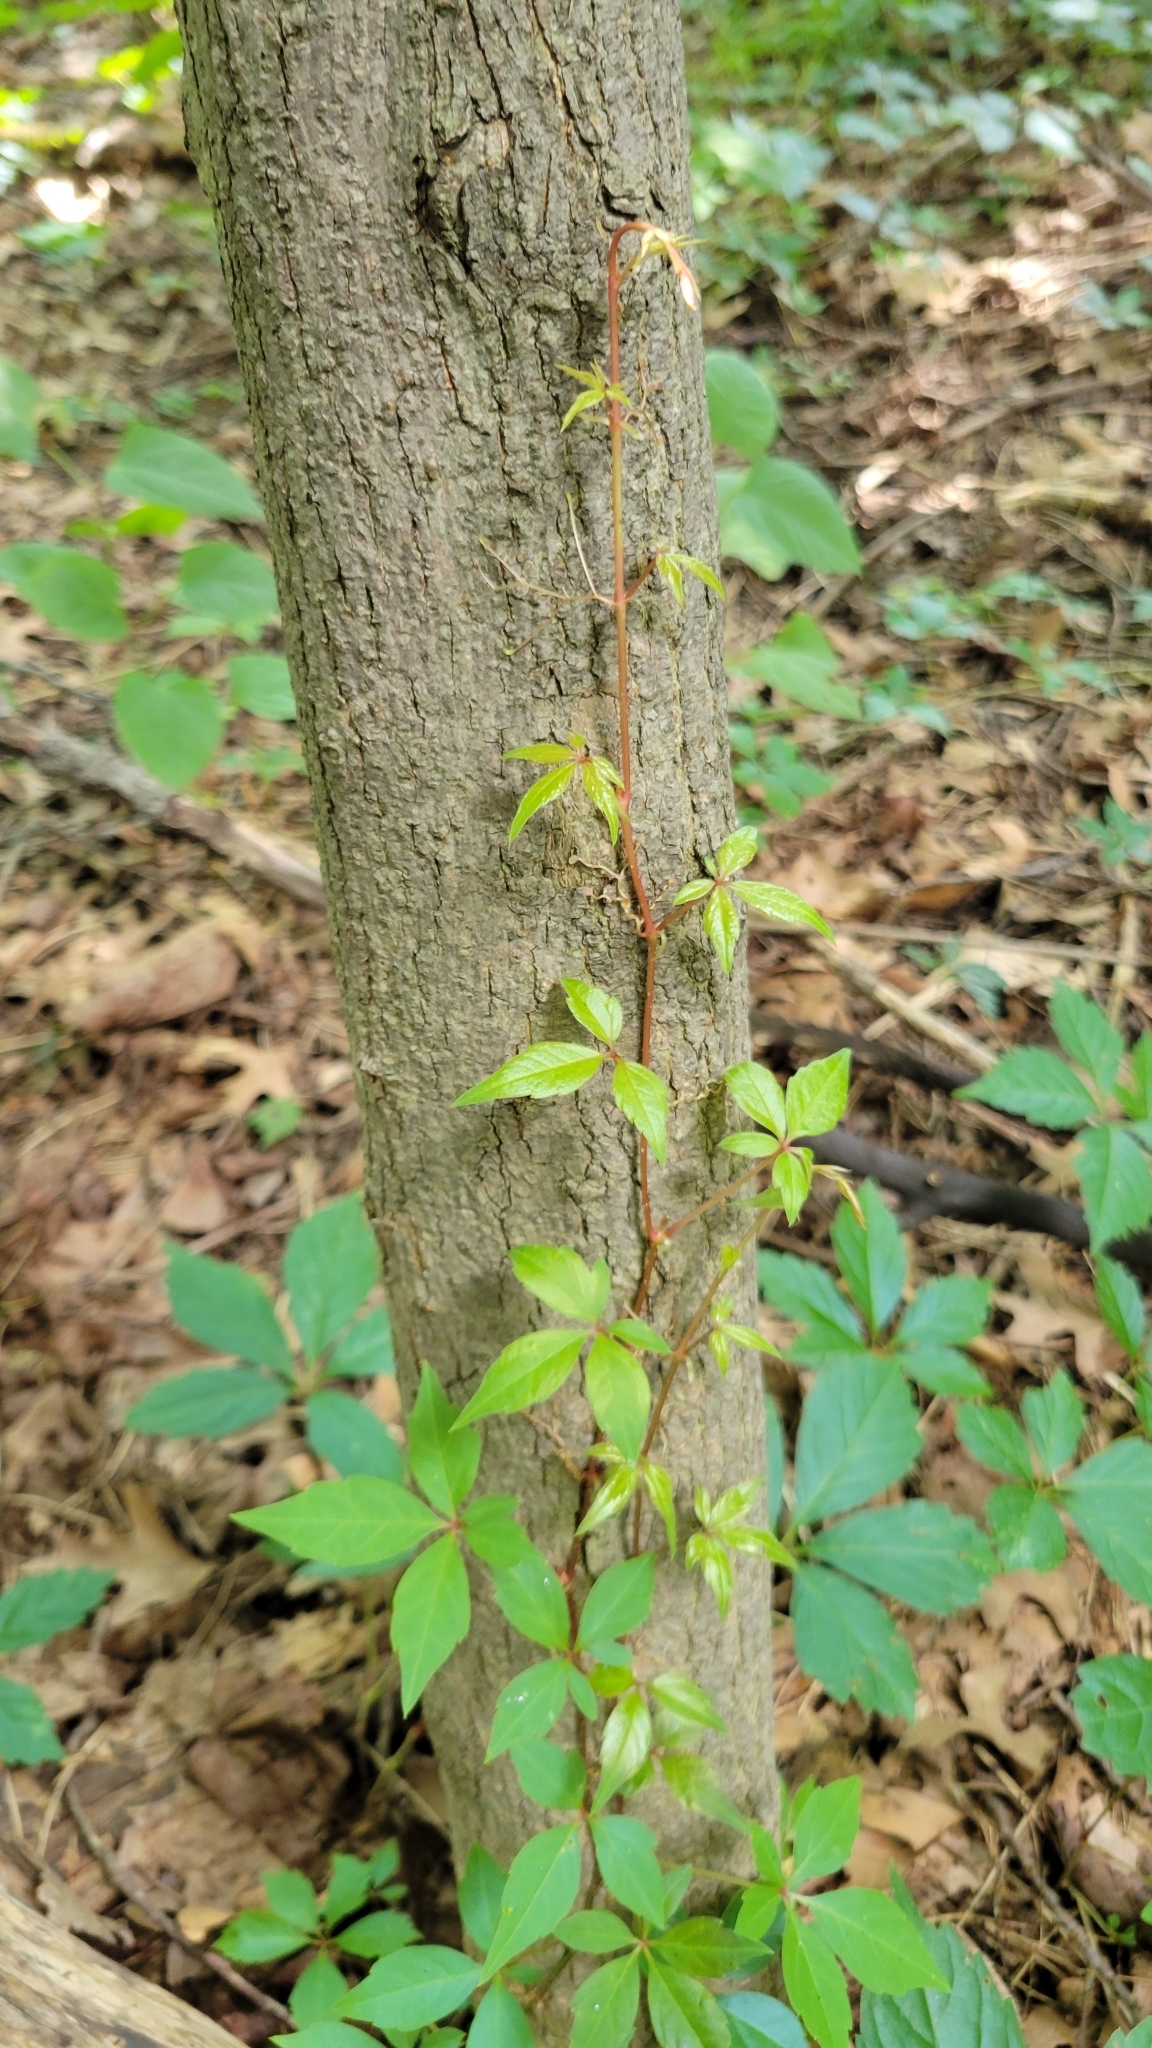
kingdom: Plantae
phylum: Tracheophyta
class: Magnoliopsida
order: Vitales
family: Vitaceae
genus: Parthenocissus
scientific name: Parthenocissus quinquefolia
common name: Virginia-creeper
